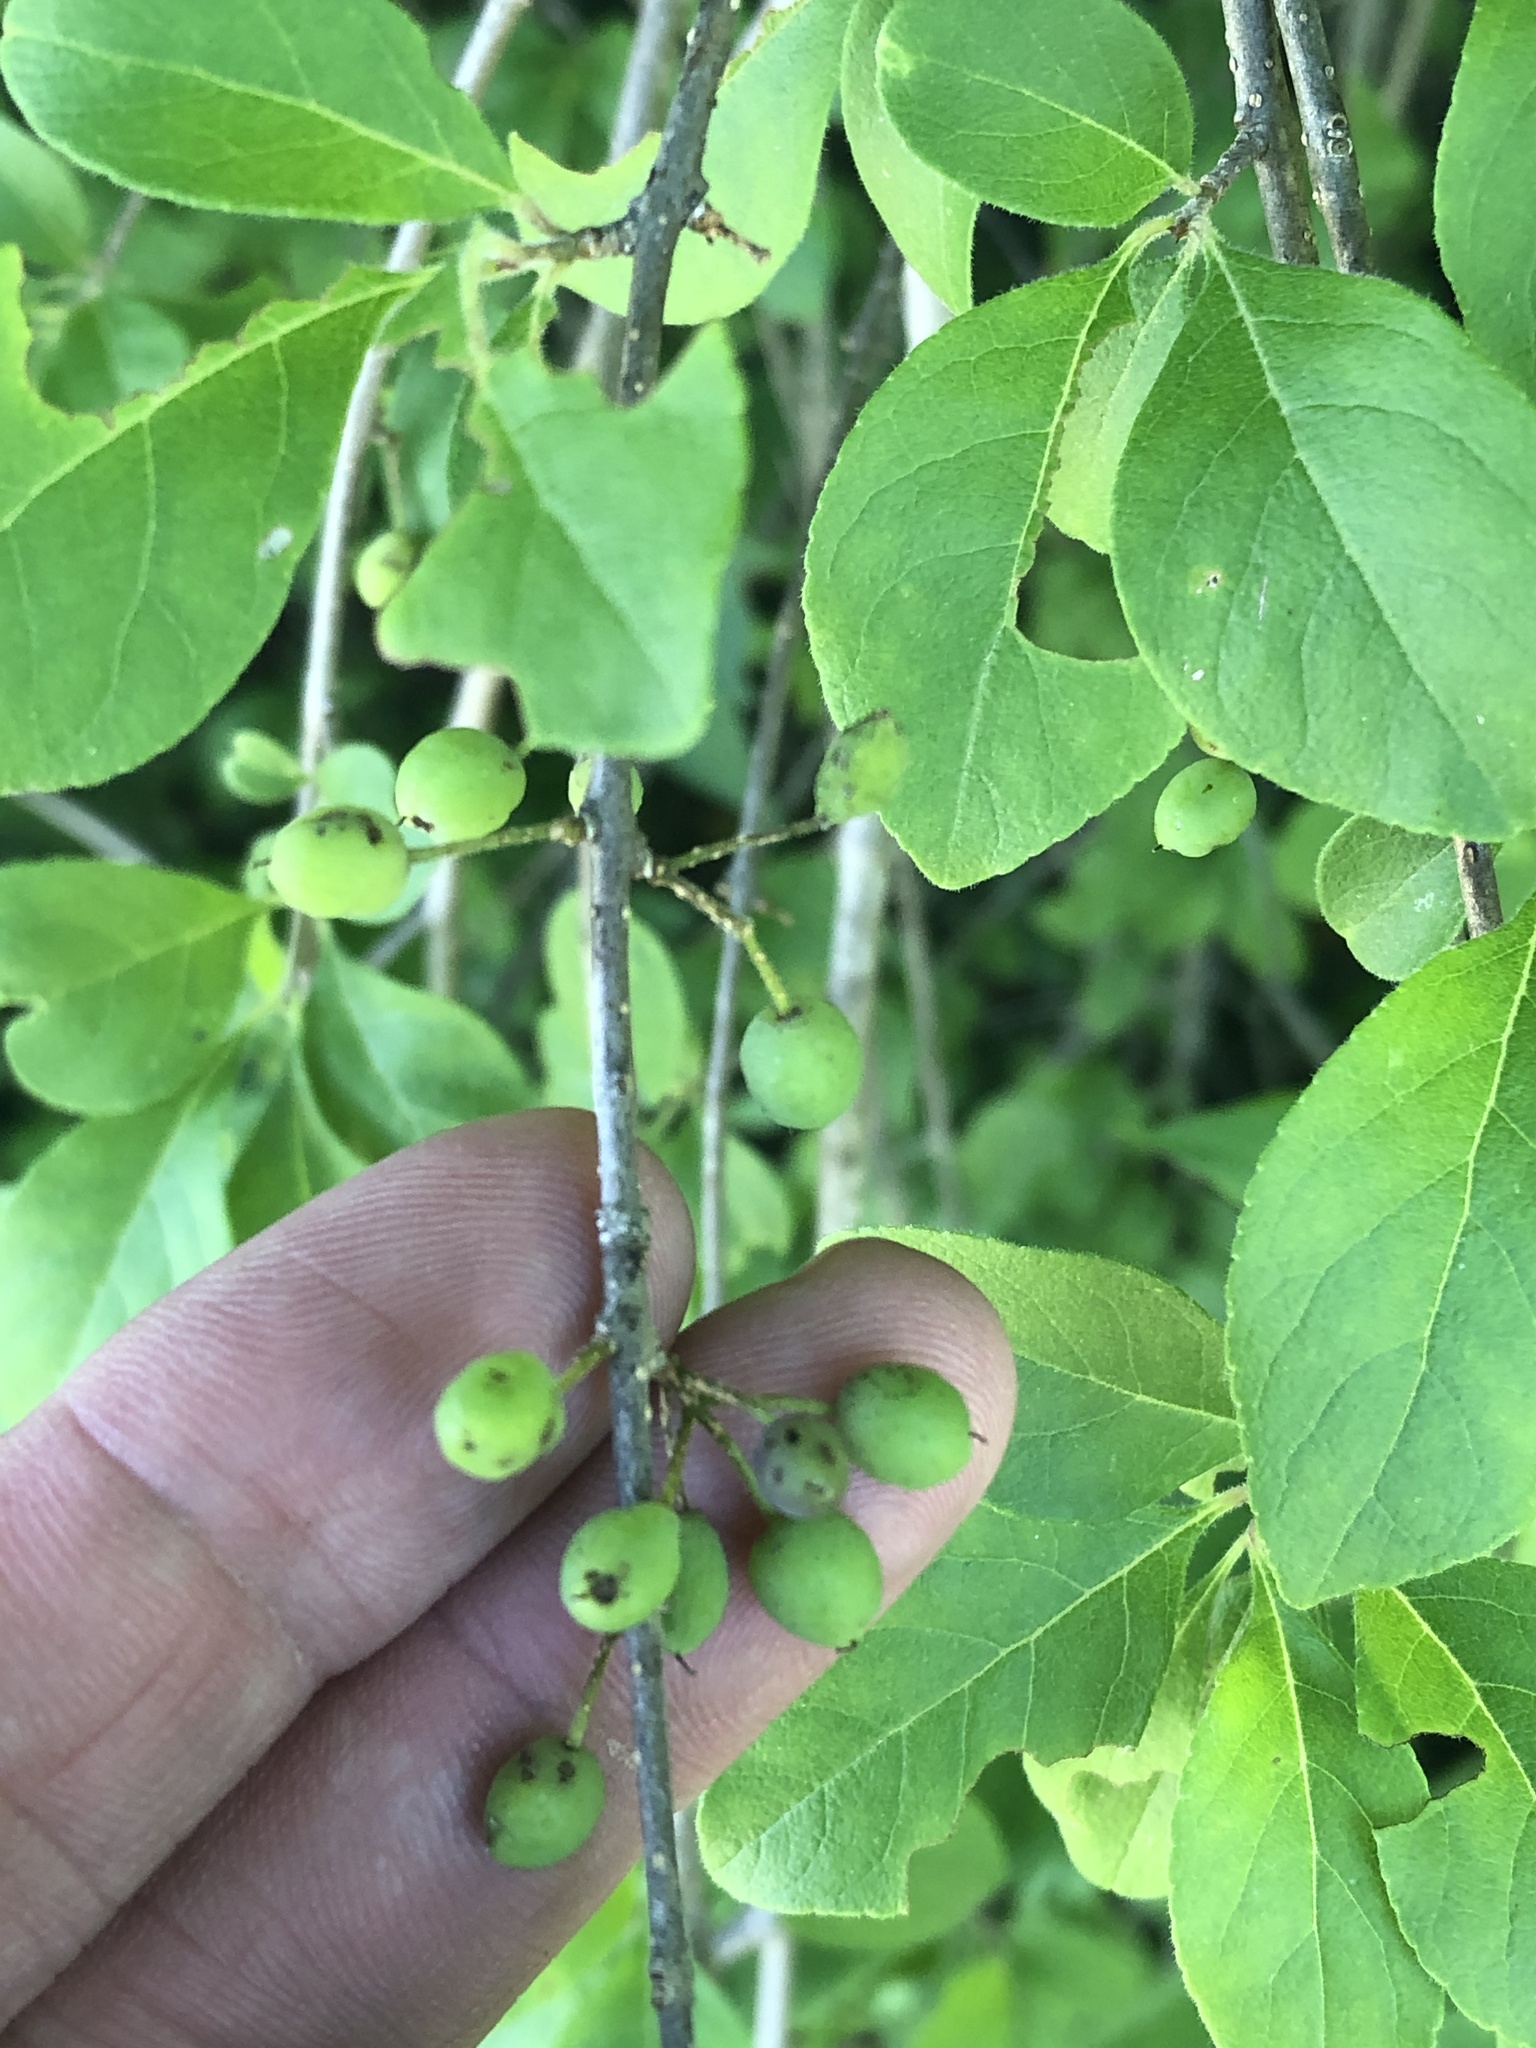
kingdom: Plantae
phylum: Tracheophyta
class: Magnoliopsida
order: Lamiales
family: Oleaceae
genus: Forestiera
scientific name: Forestiera pubescens
